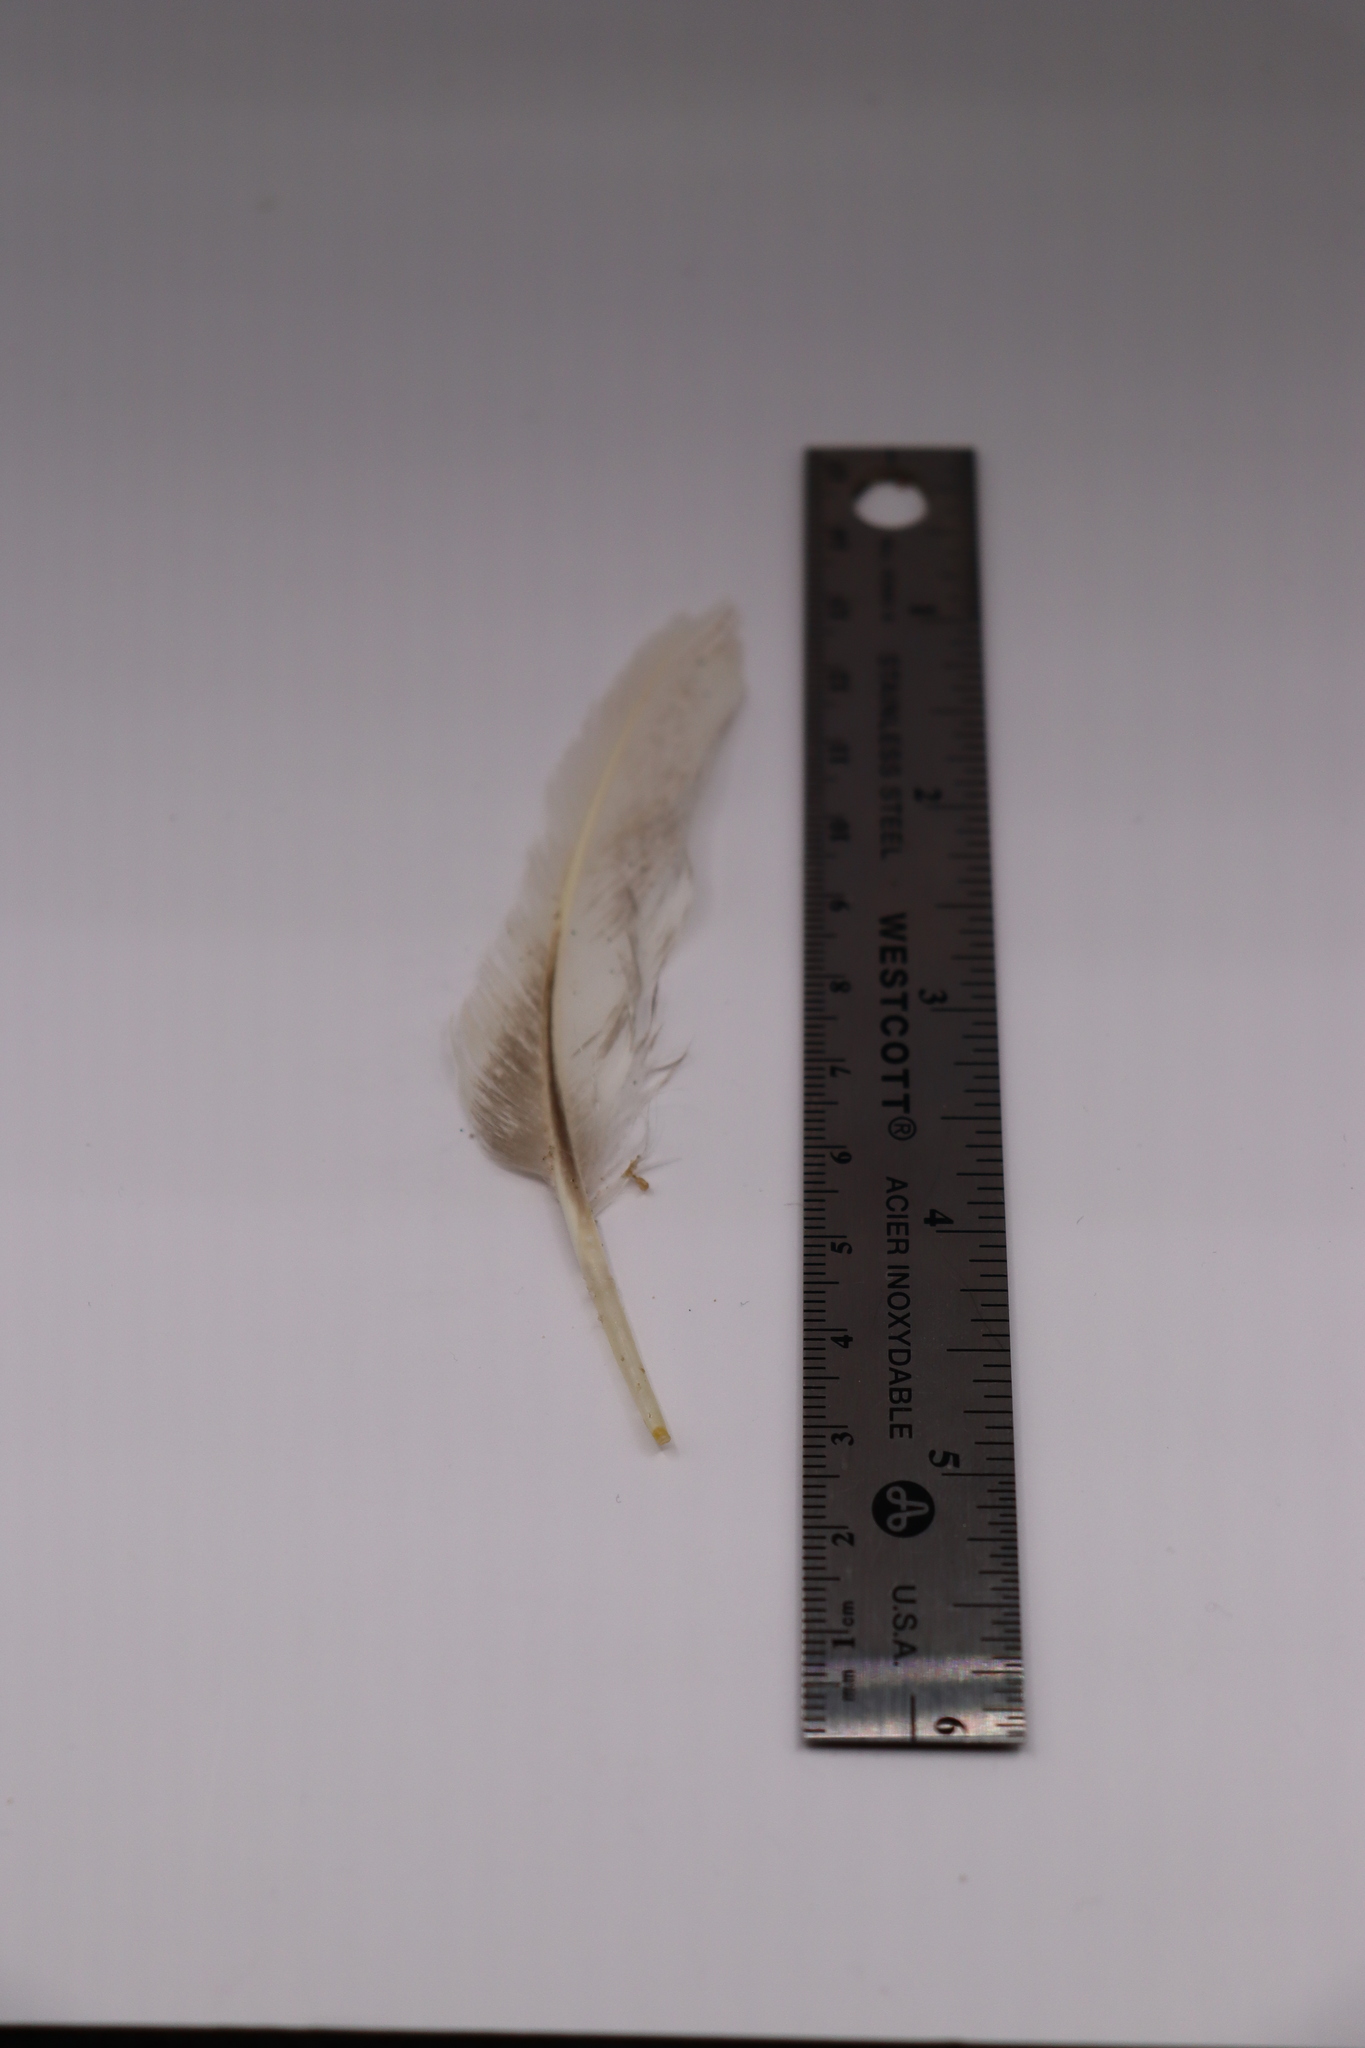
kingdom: Animalia
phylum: Chordata
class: Aves
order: Anseriformes
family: Anatidae
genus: Anas
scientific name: Anas platyrhynchos
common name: Mallard
